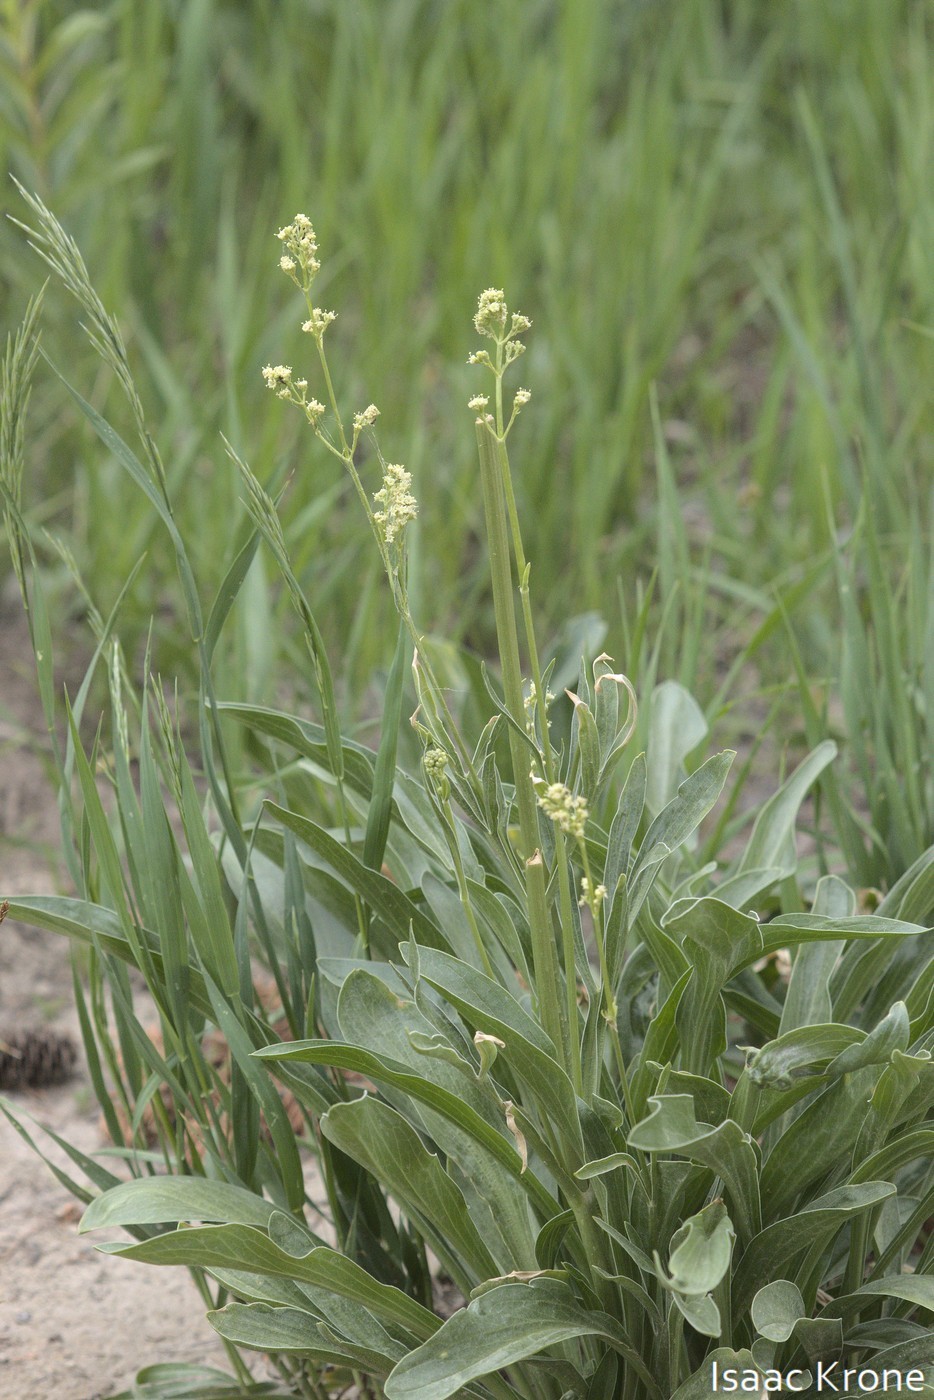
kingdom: Plantae
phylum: Tracheophyta
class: Magnoliopsida
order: Dipsacales
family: Caprifoliaceae
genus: Valeriana
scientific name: Valeriana edulis
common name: Taproot valerian
